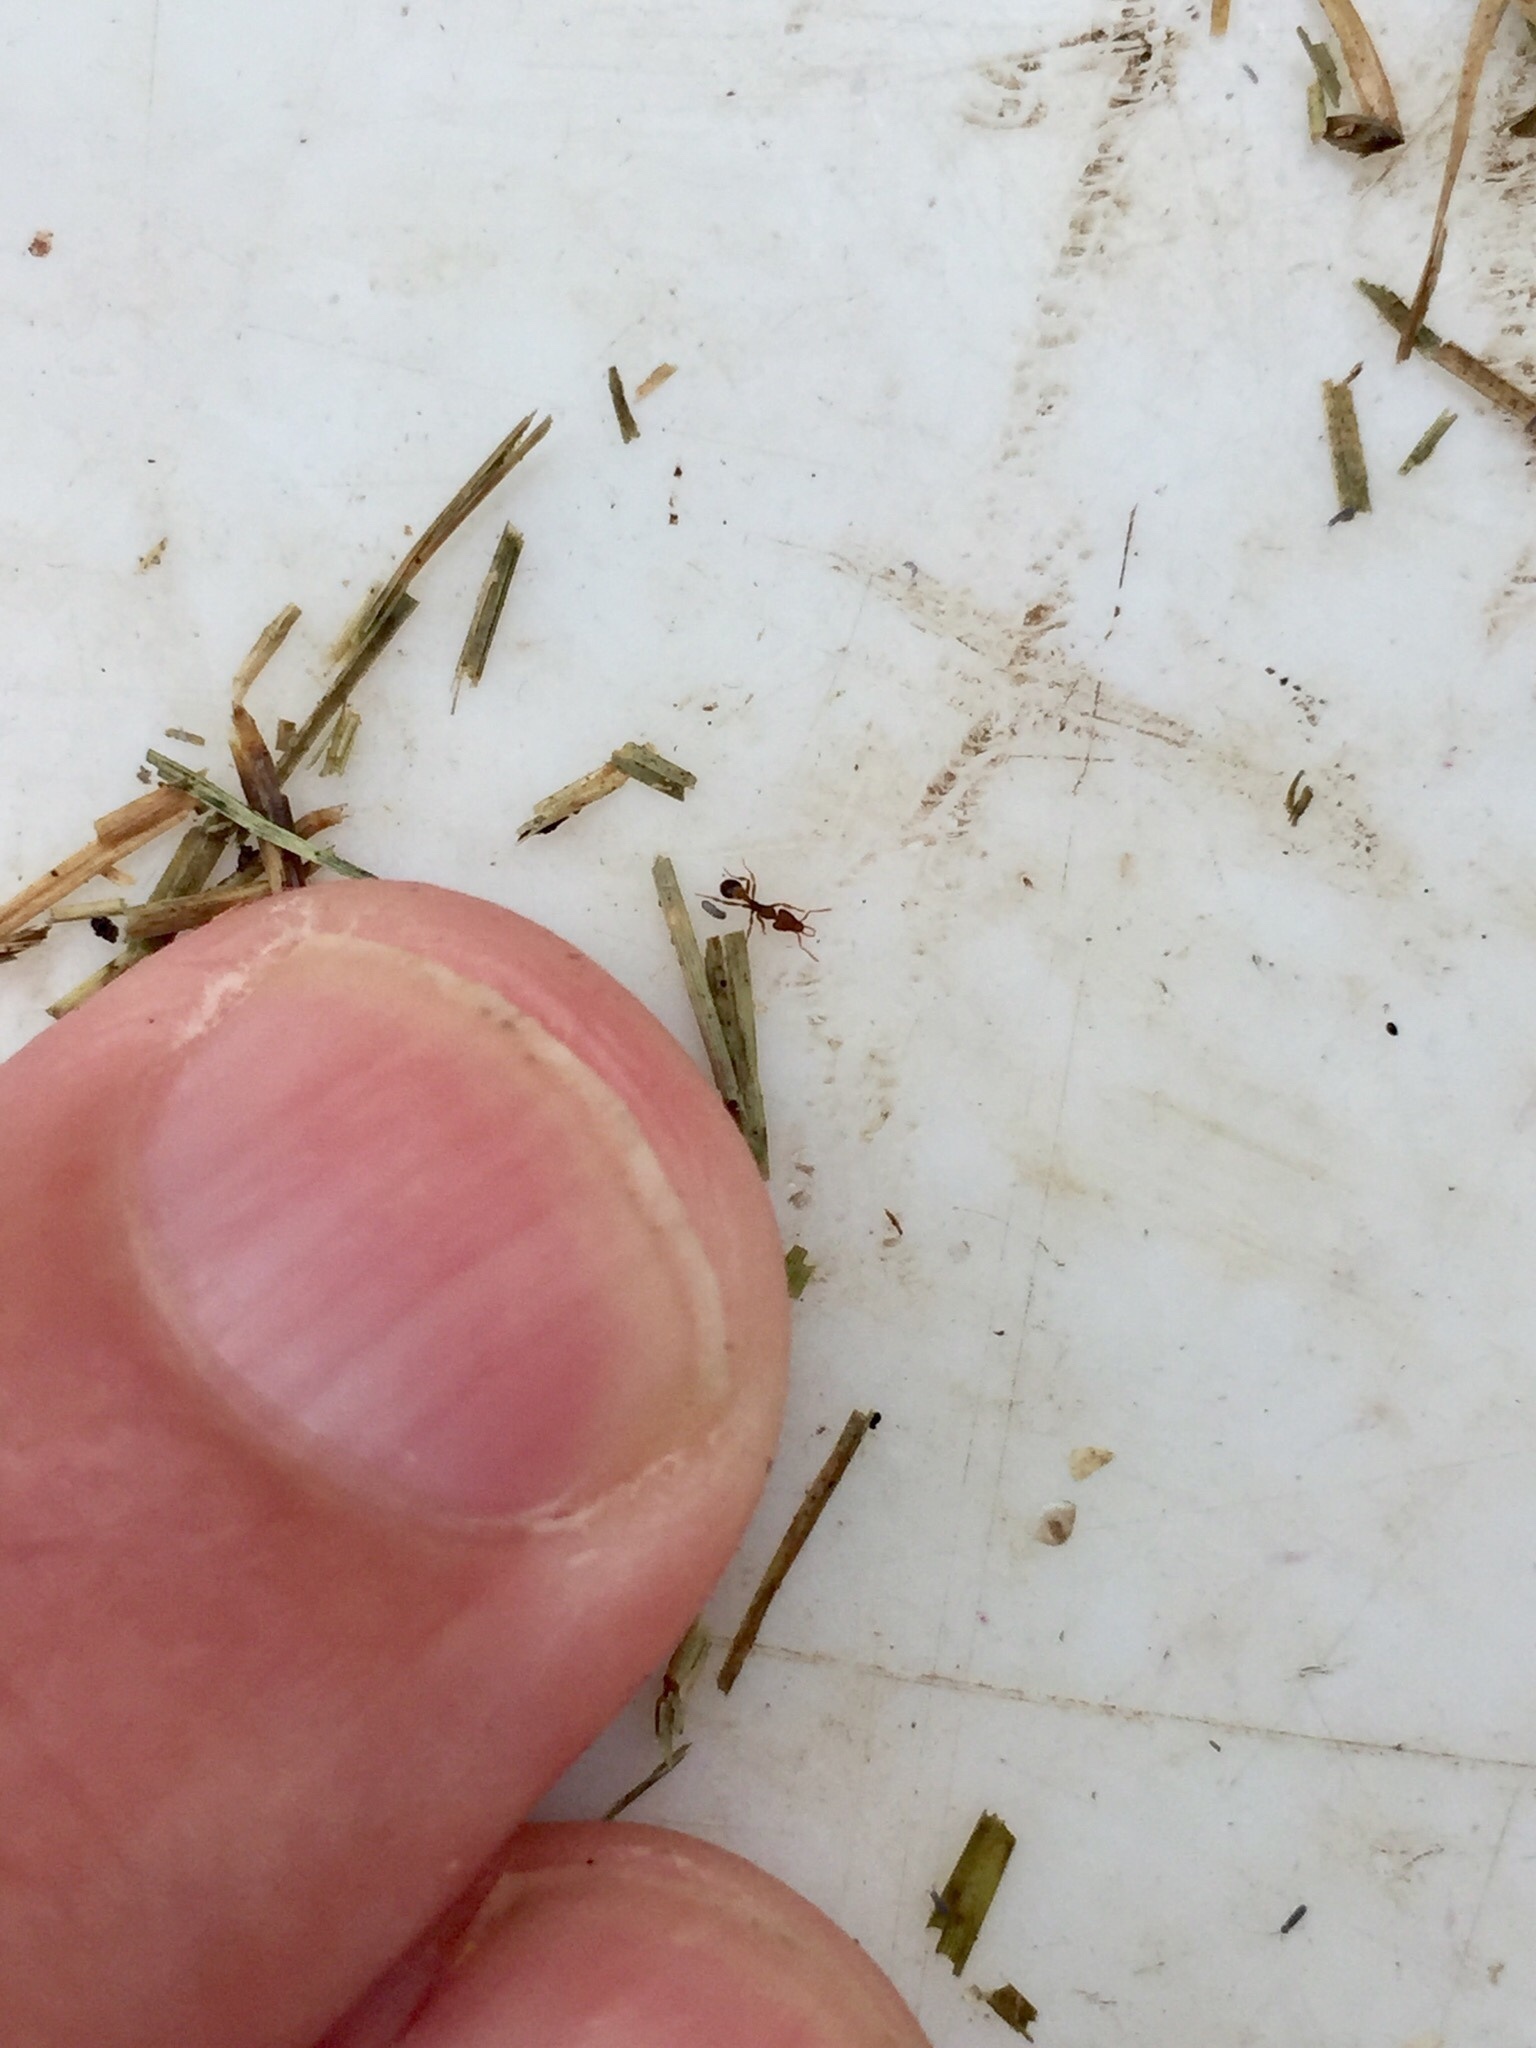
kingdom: Animalia
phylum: Arthropoda
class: Insecta
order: Hymenoptera
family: Formicidae
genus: Strumigenys
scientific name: Strumigenys perplexa
